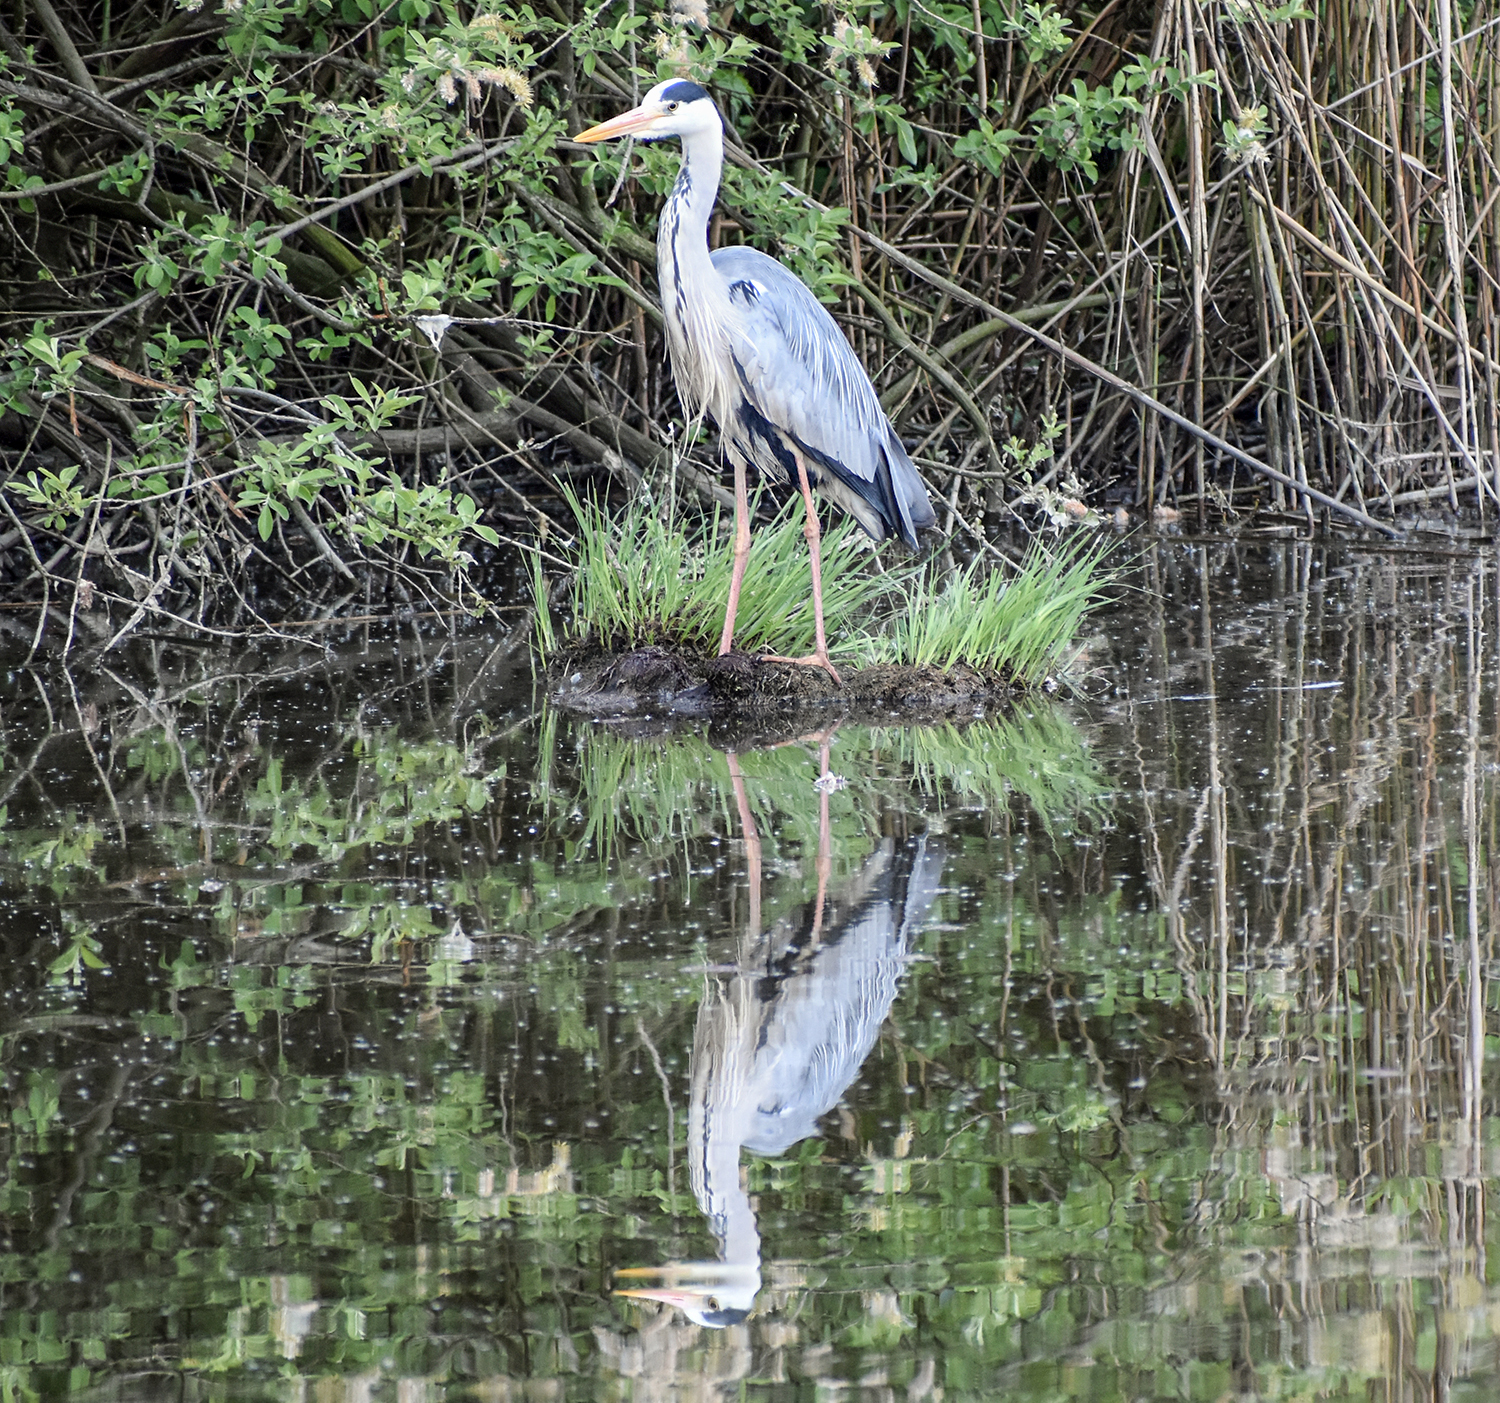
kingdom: Animalia
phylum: Chordata
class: Aves
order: Pelecaniformes
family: Ardeidae
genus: Ardea
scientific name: Ardea cinerea
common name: Grey heron
